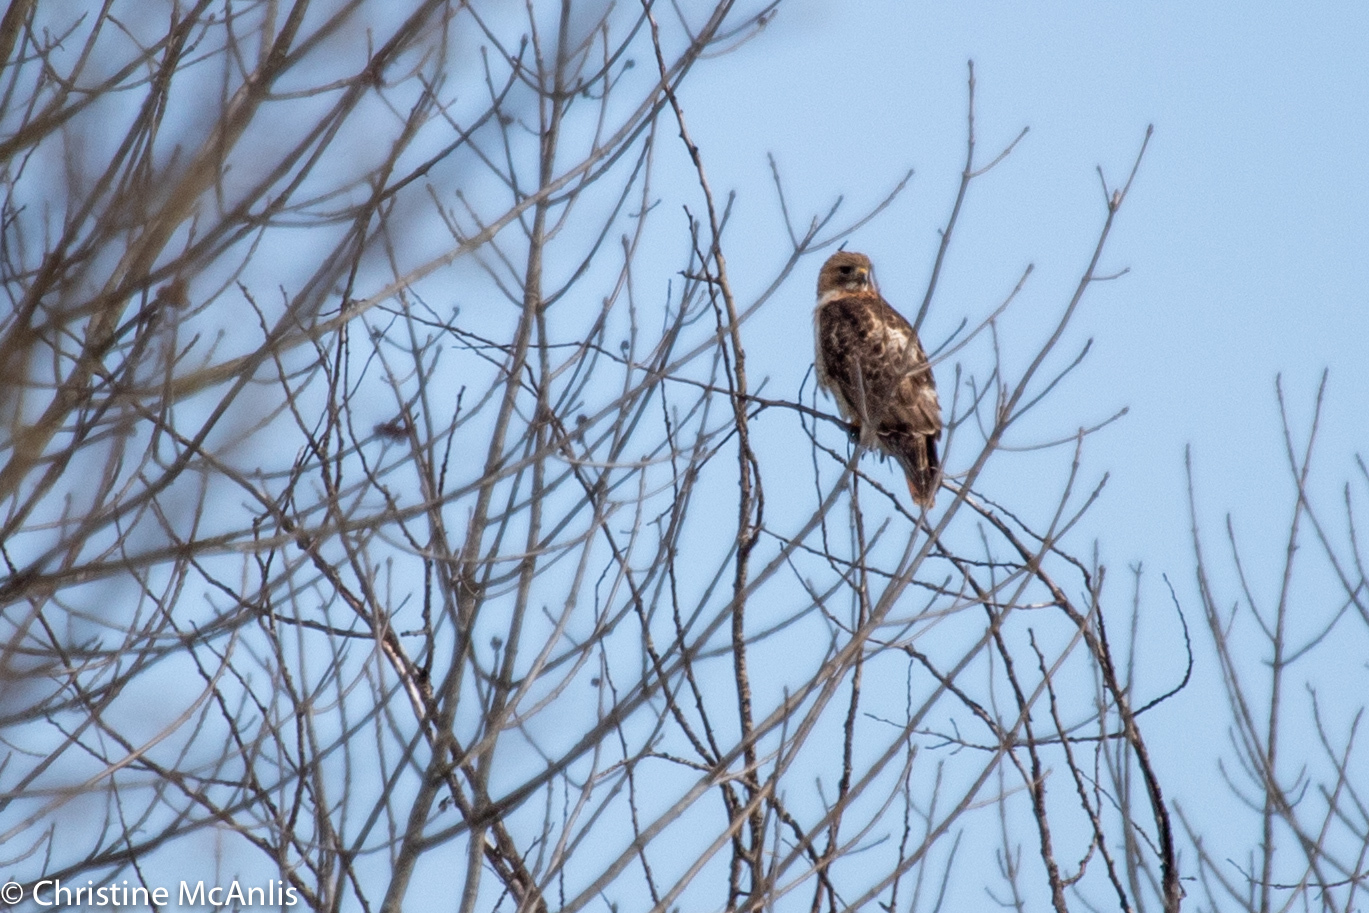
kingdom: Animalia
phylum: Chordata
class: Aves
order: Accipitriformes
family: Accipitridae
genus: Buteo
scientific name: Buteo jamaicensis
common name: Red-tailed hawk
